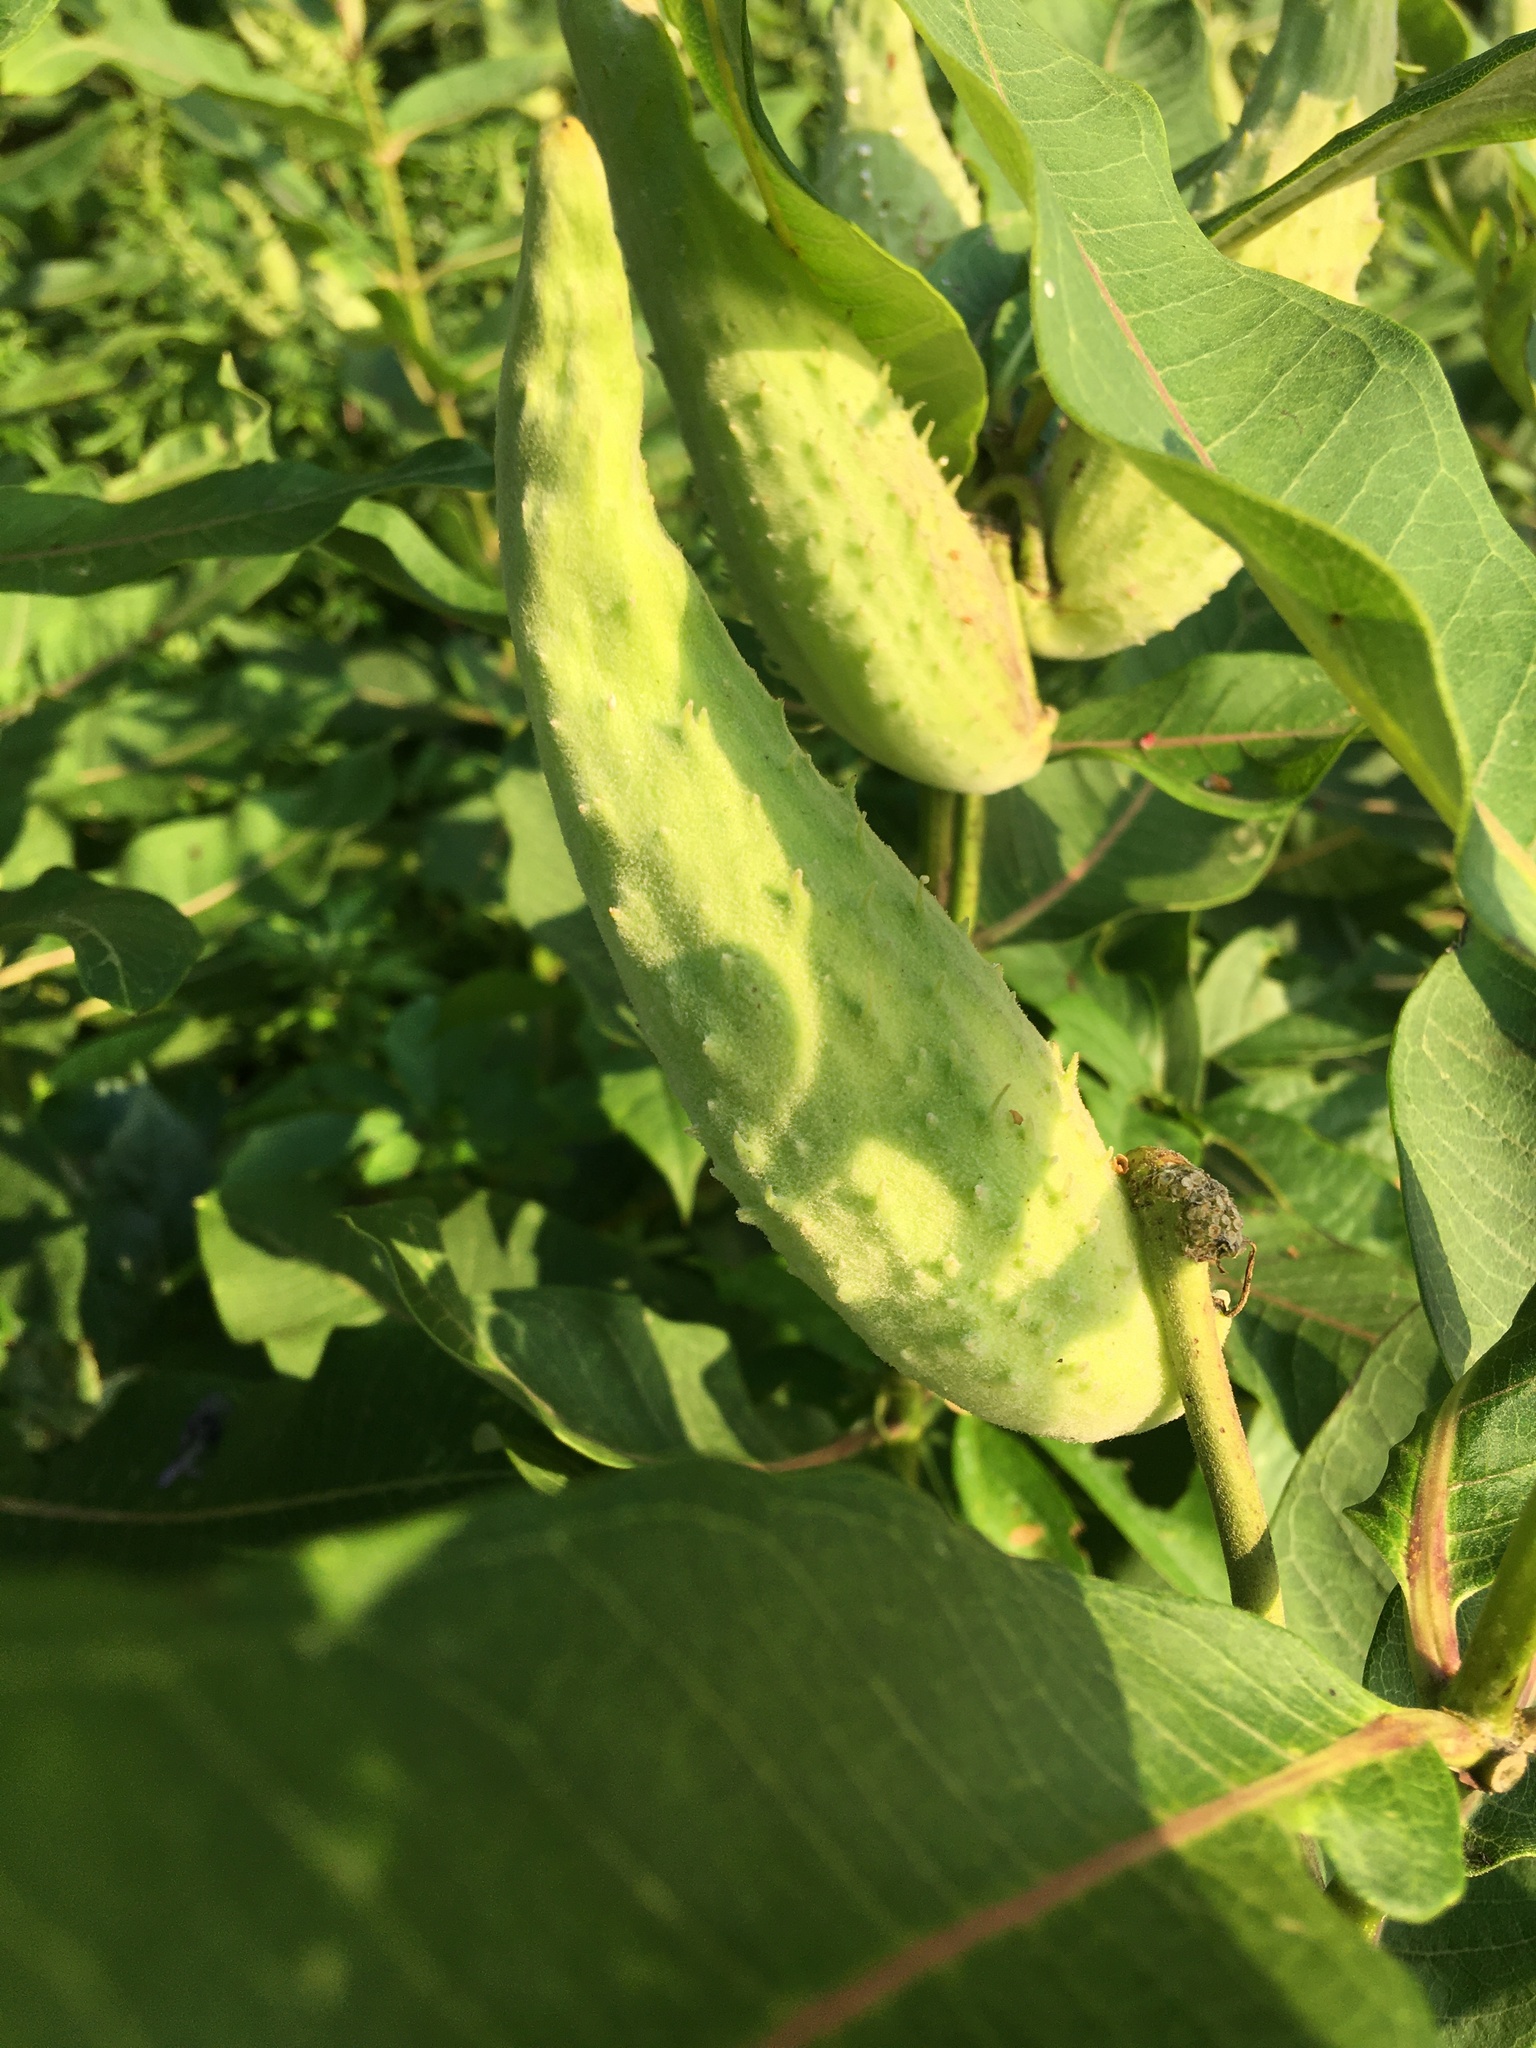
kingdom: Plantae
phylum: Tracheophyta
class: Magnoliopsida
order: Gentianales
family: Apocynaceae
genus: Asclepias
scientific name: Asclepias syriaca
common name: Common milkweed
